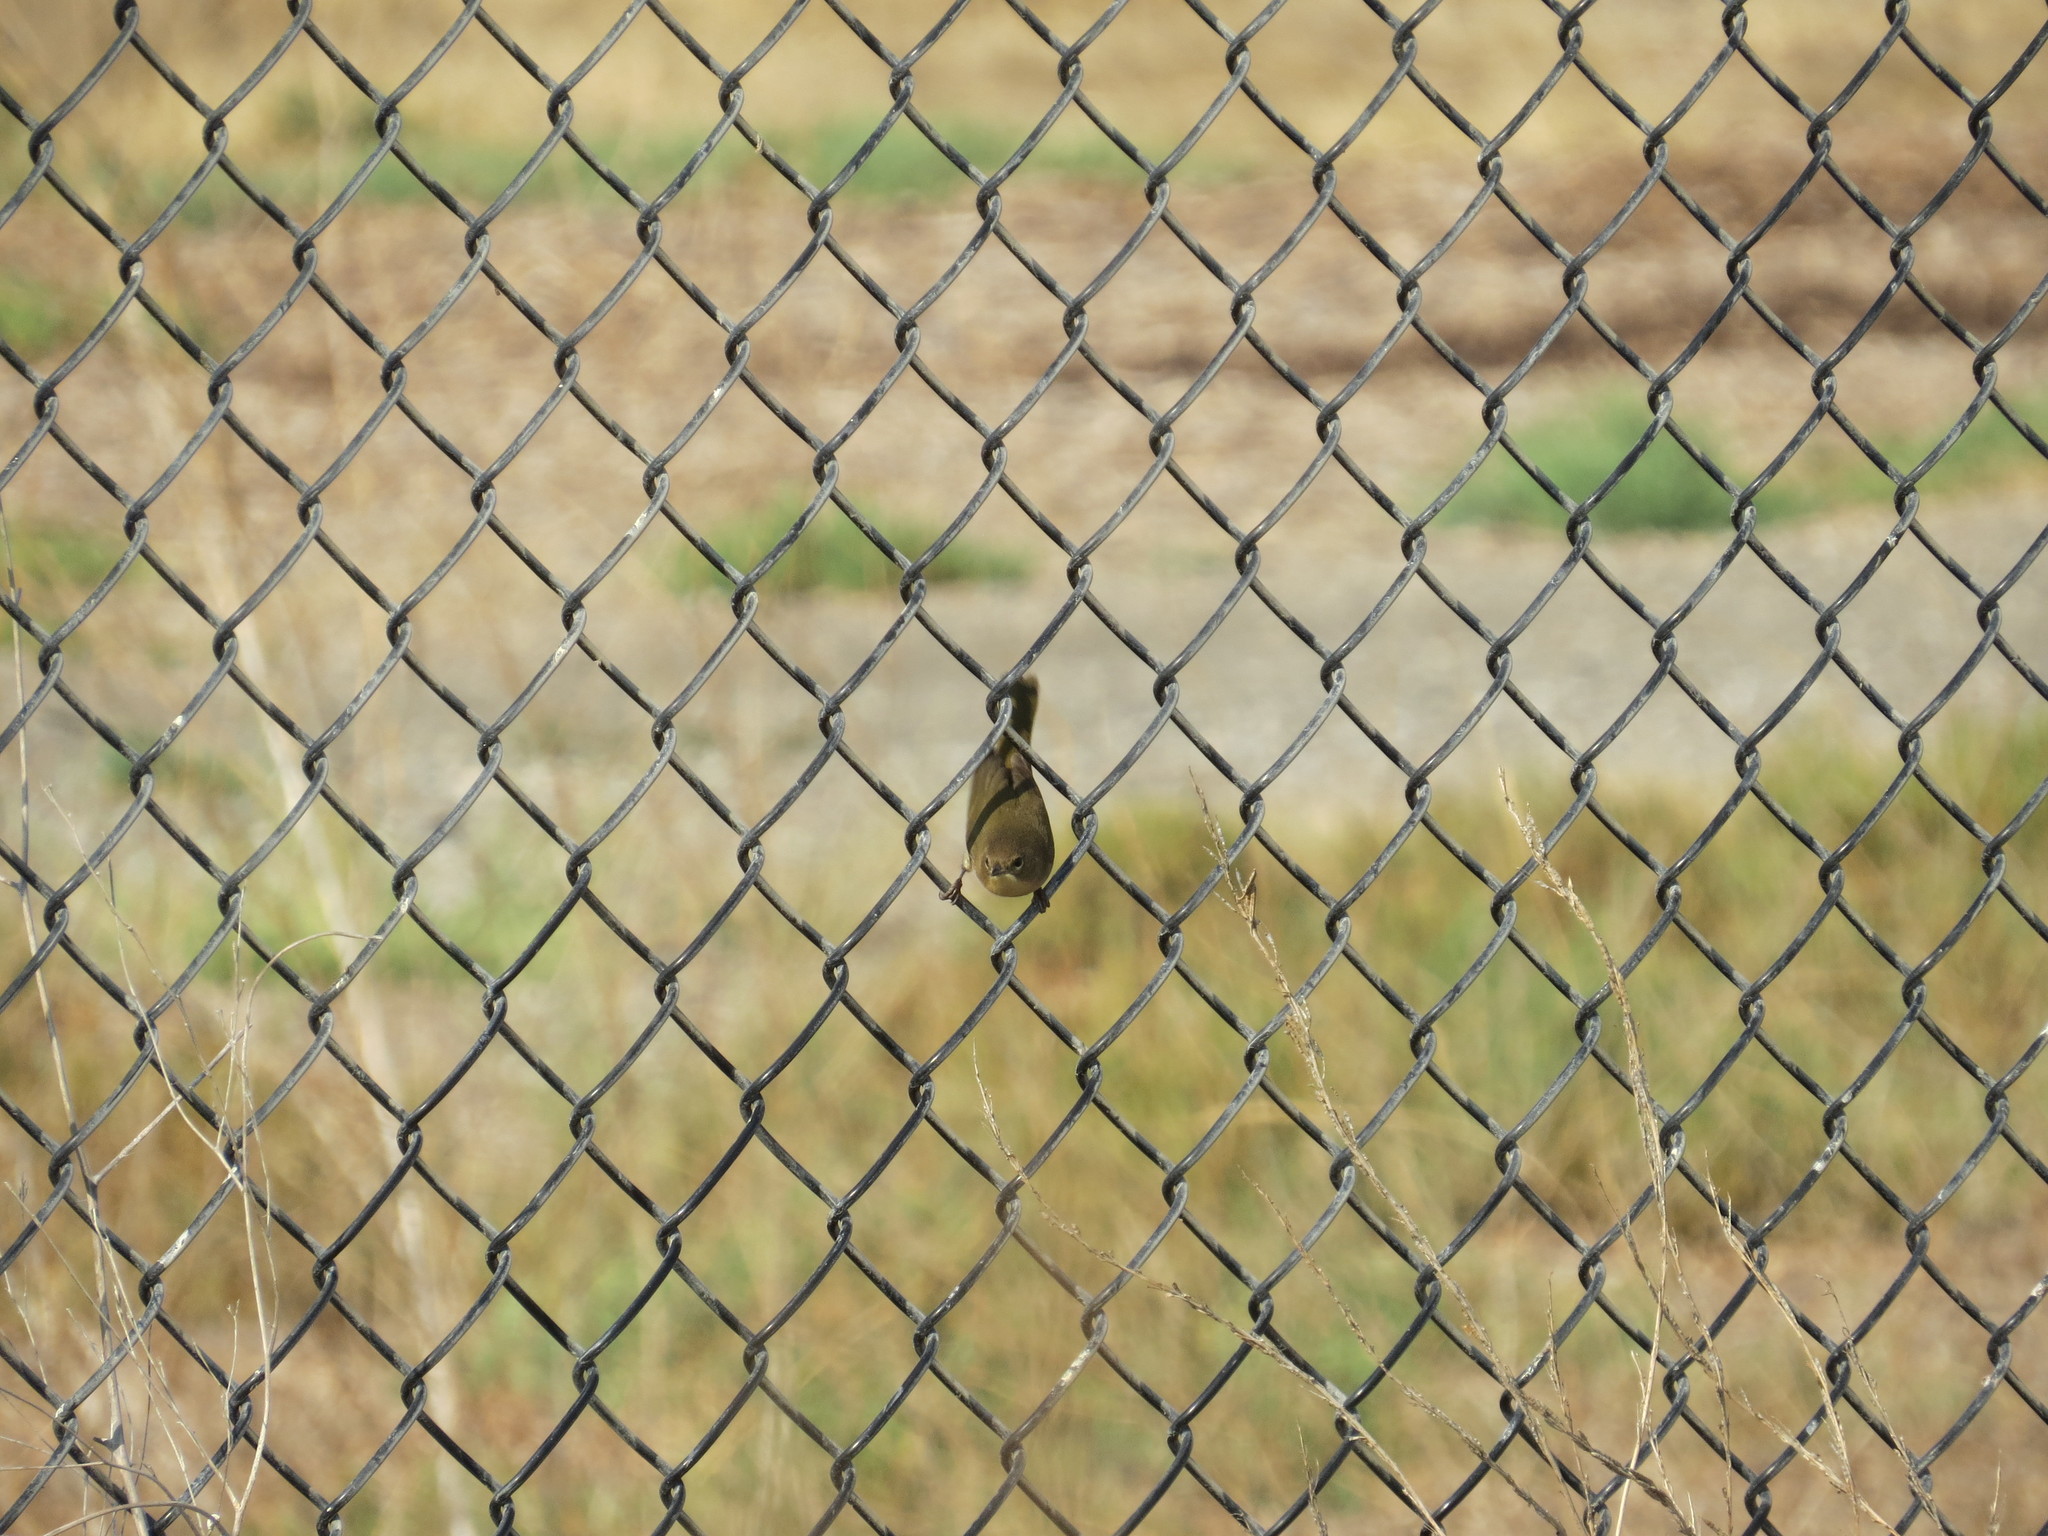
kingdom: Animalia
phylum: Chordata
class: Aves
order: Passeriformes
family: Parulidae
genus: Geothlypis
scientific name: Geothlypis trichas
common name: Common yellowthroat
